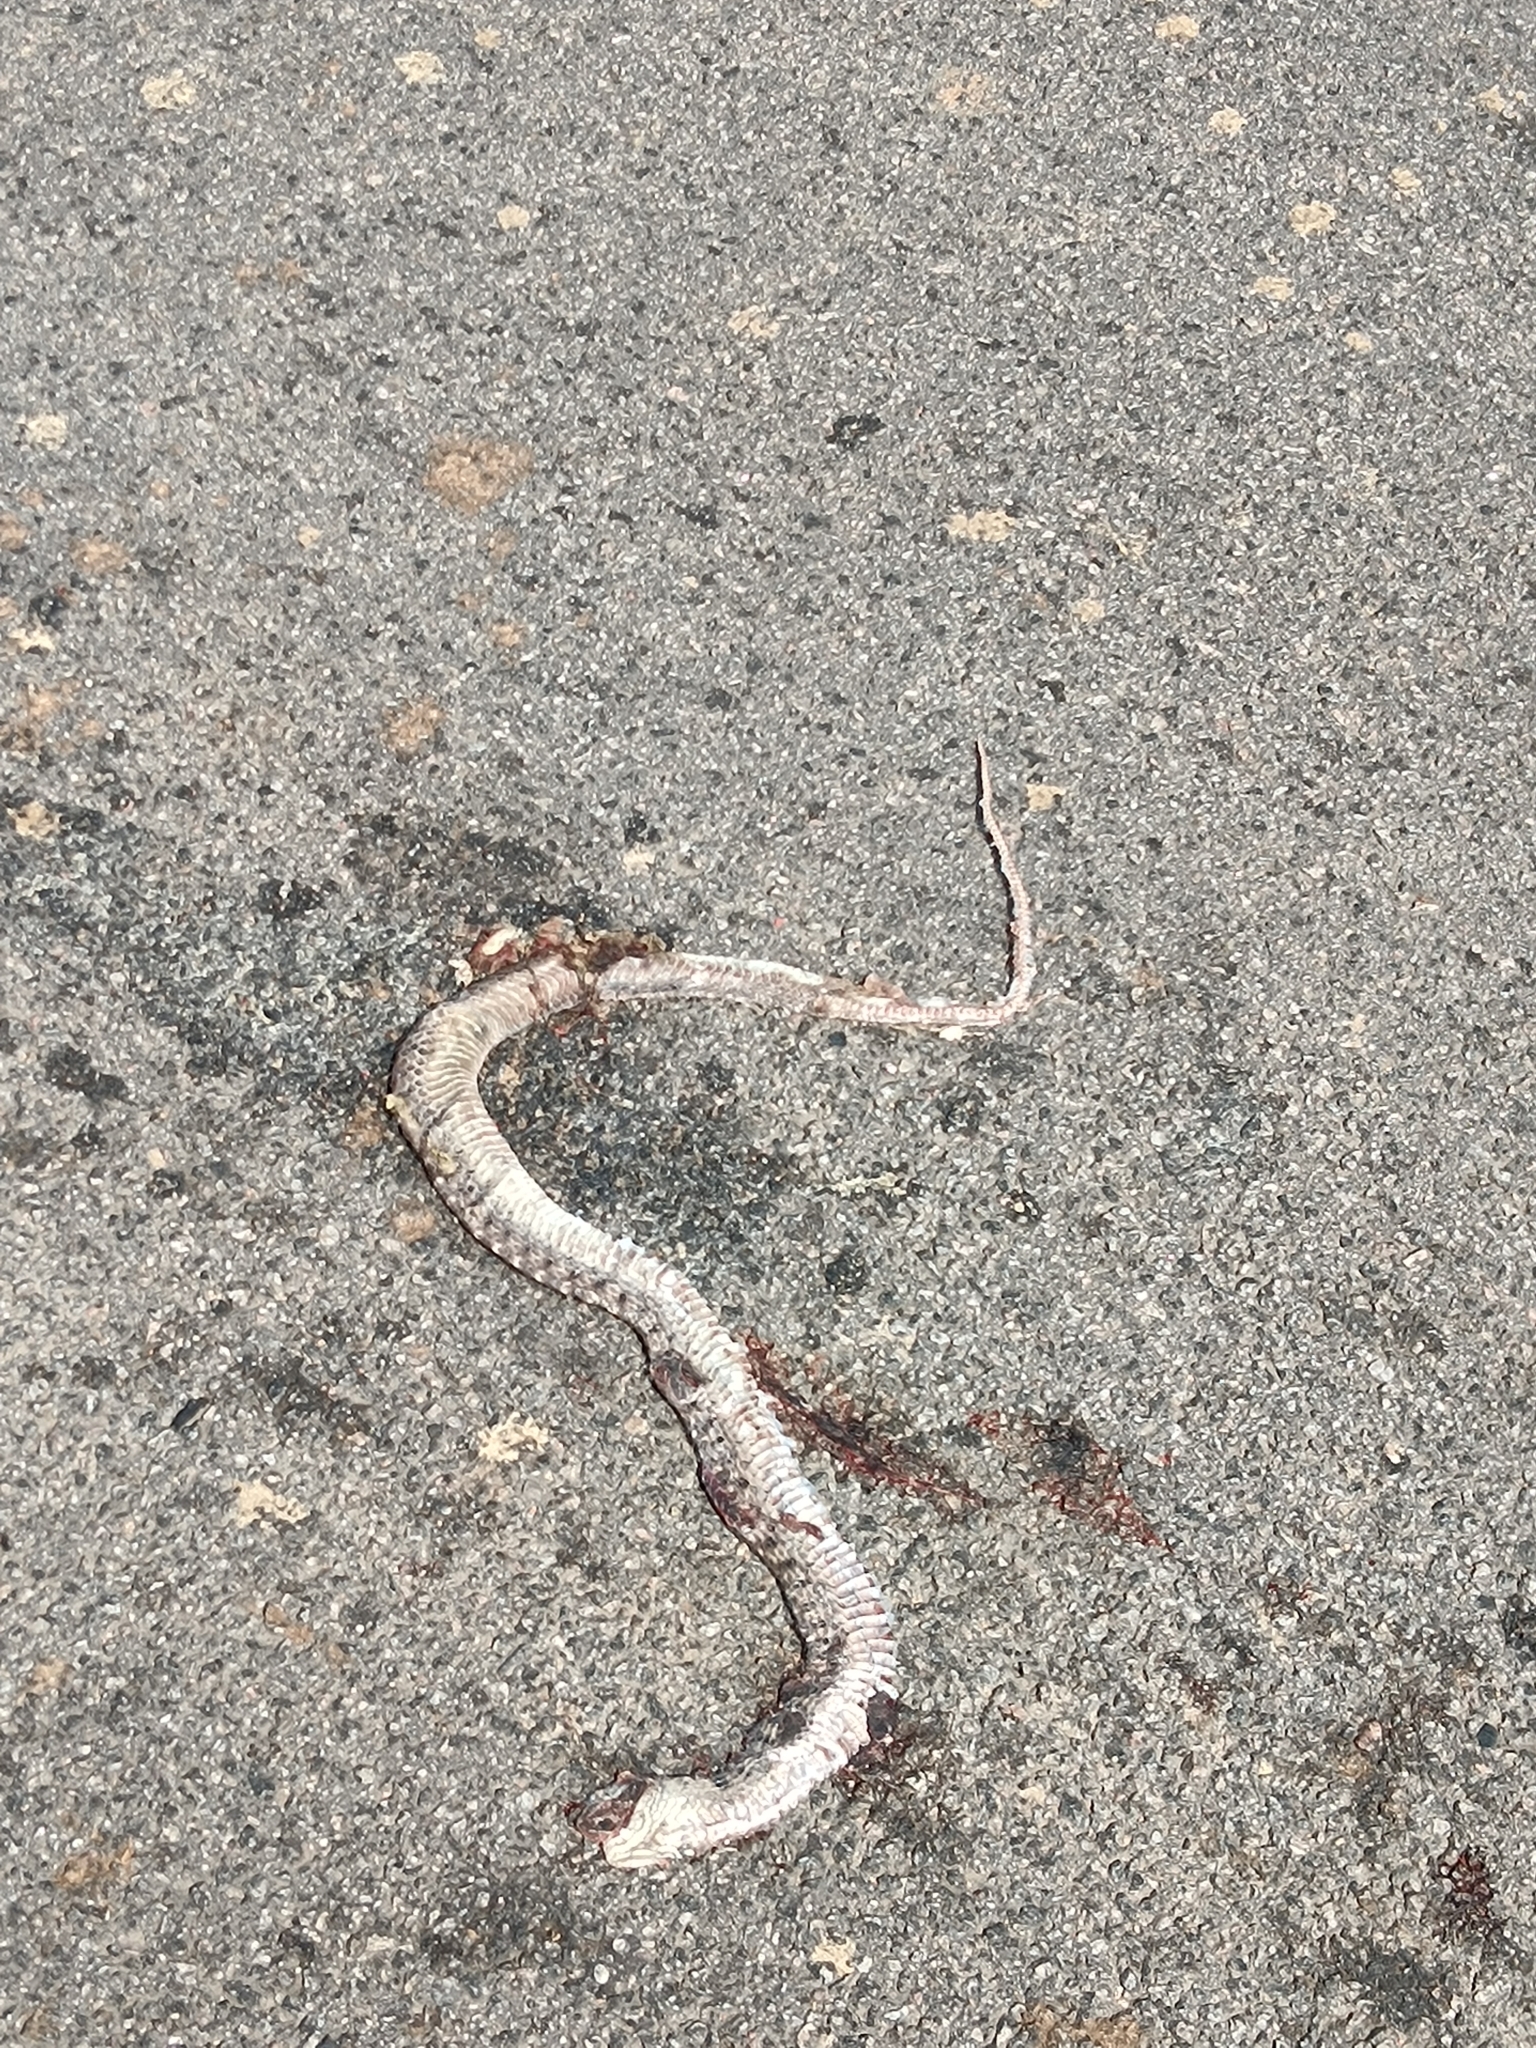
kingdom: Animalia
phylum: Chordata
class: Squamata
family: Colubridae
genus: Fowlea
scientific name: Fowlea piscator
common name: Asiatic water snake
